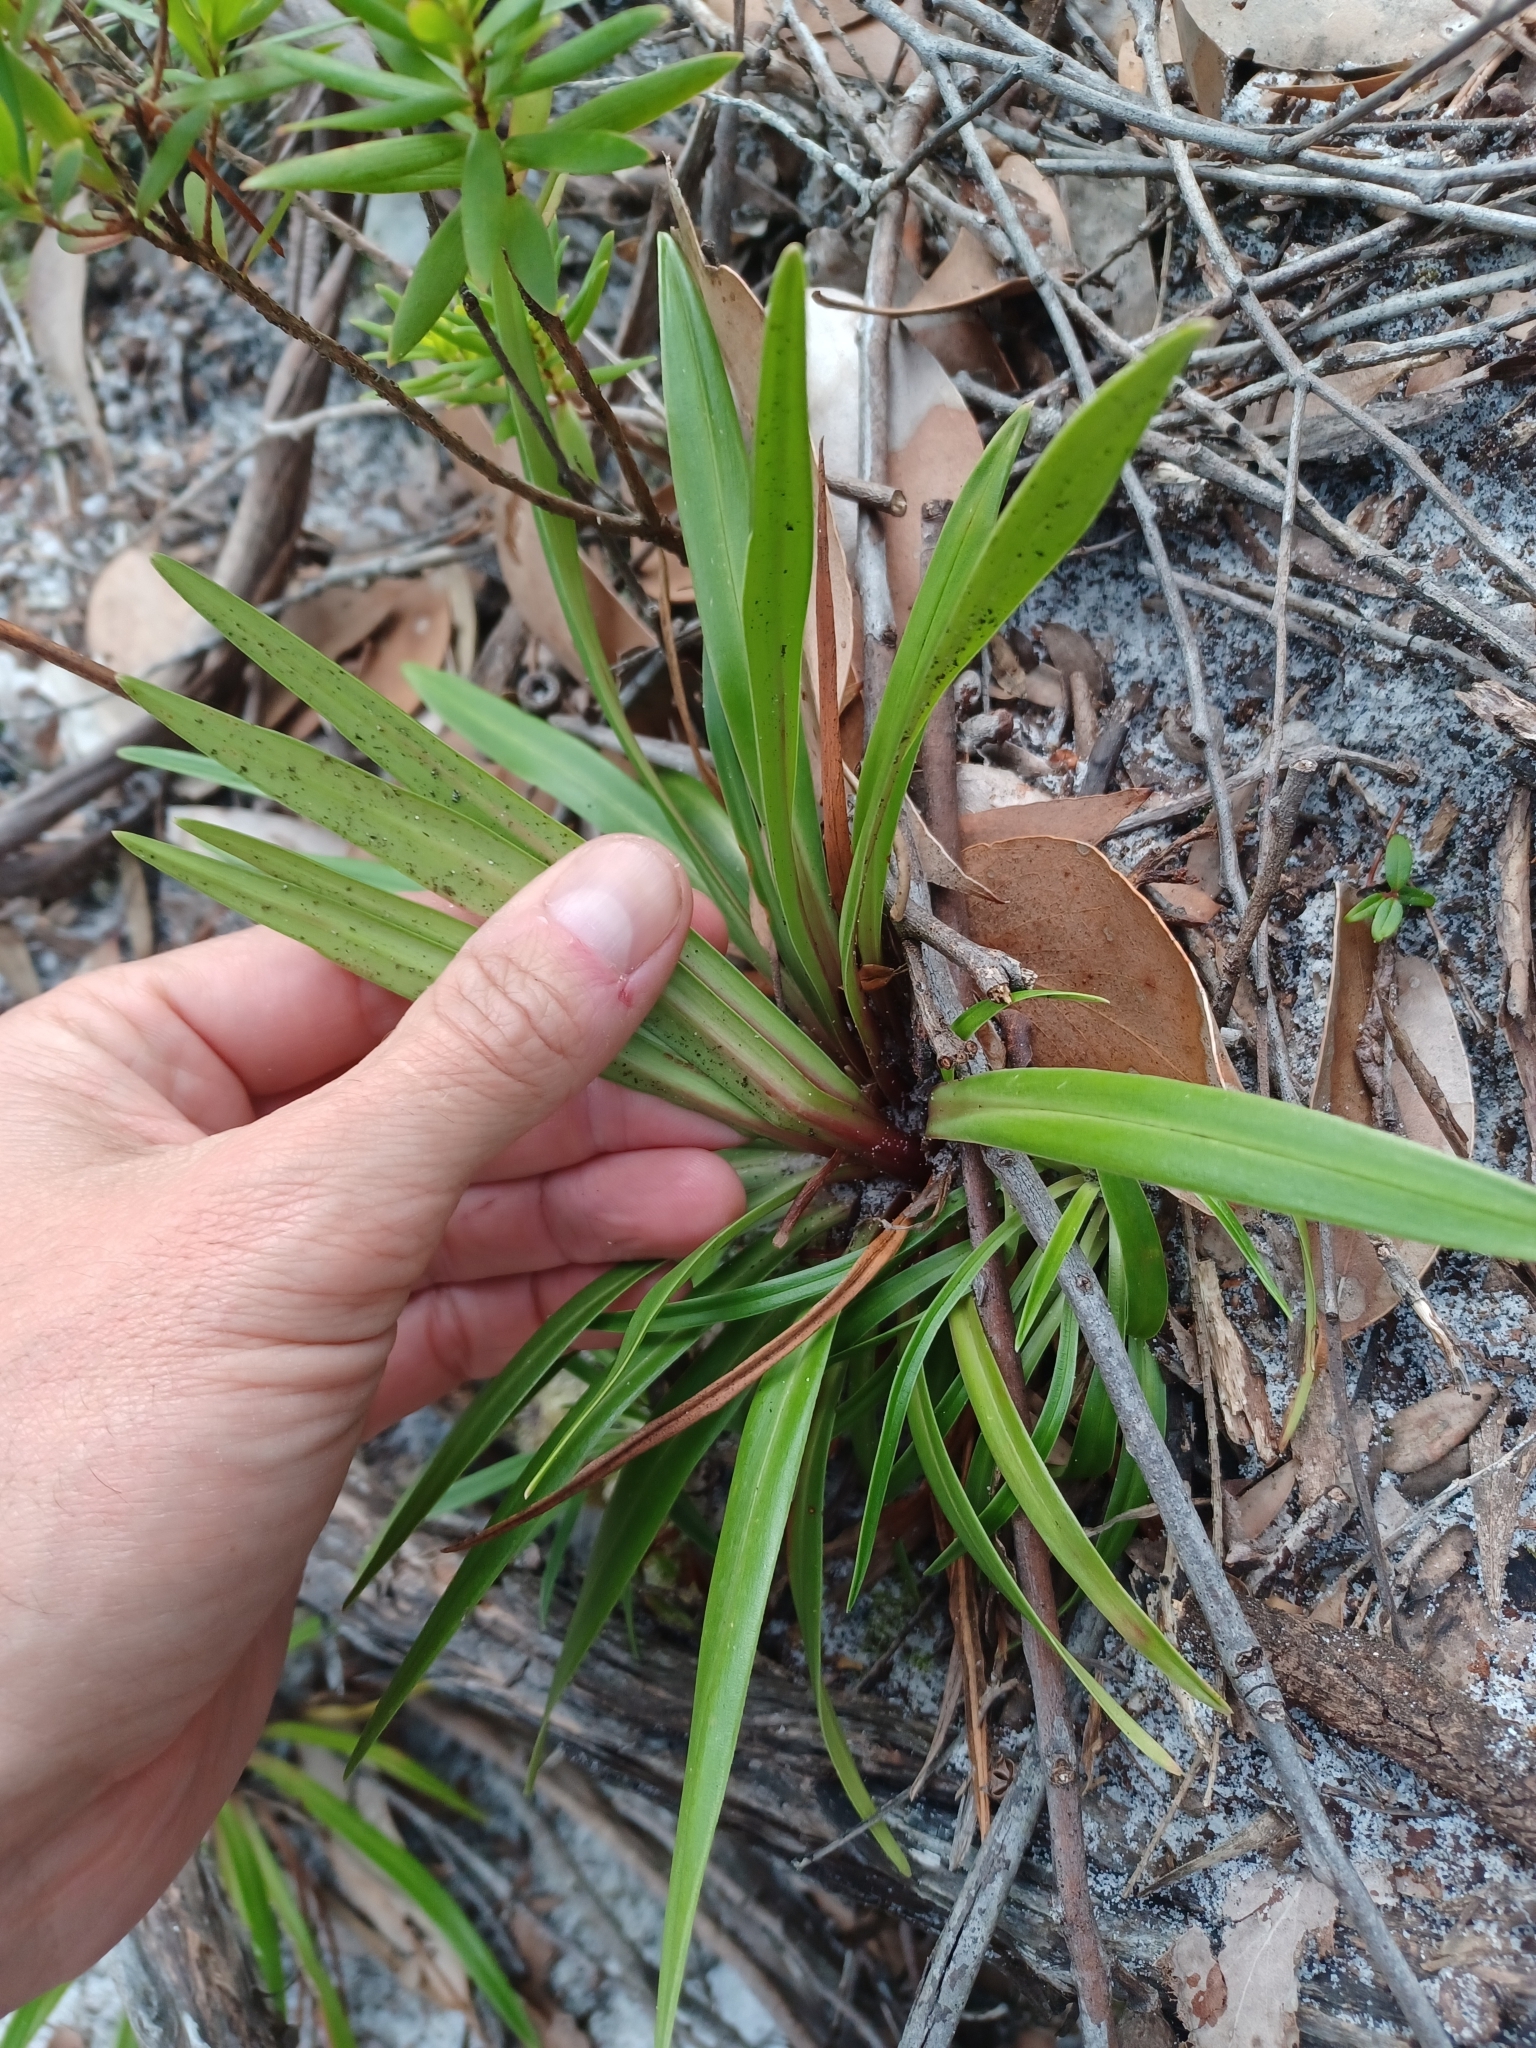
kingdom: Plantae
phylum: Tracheophyta
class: Magnoliopsida
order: Asterales
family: Stylidiaceae
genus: Stylidium
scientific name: Stylidium armeria
